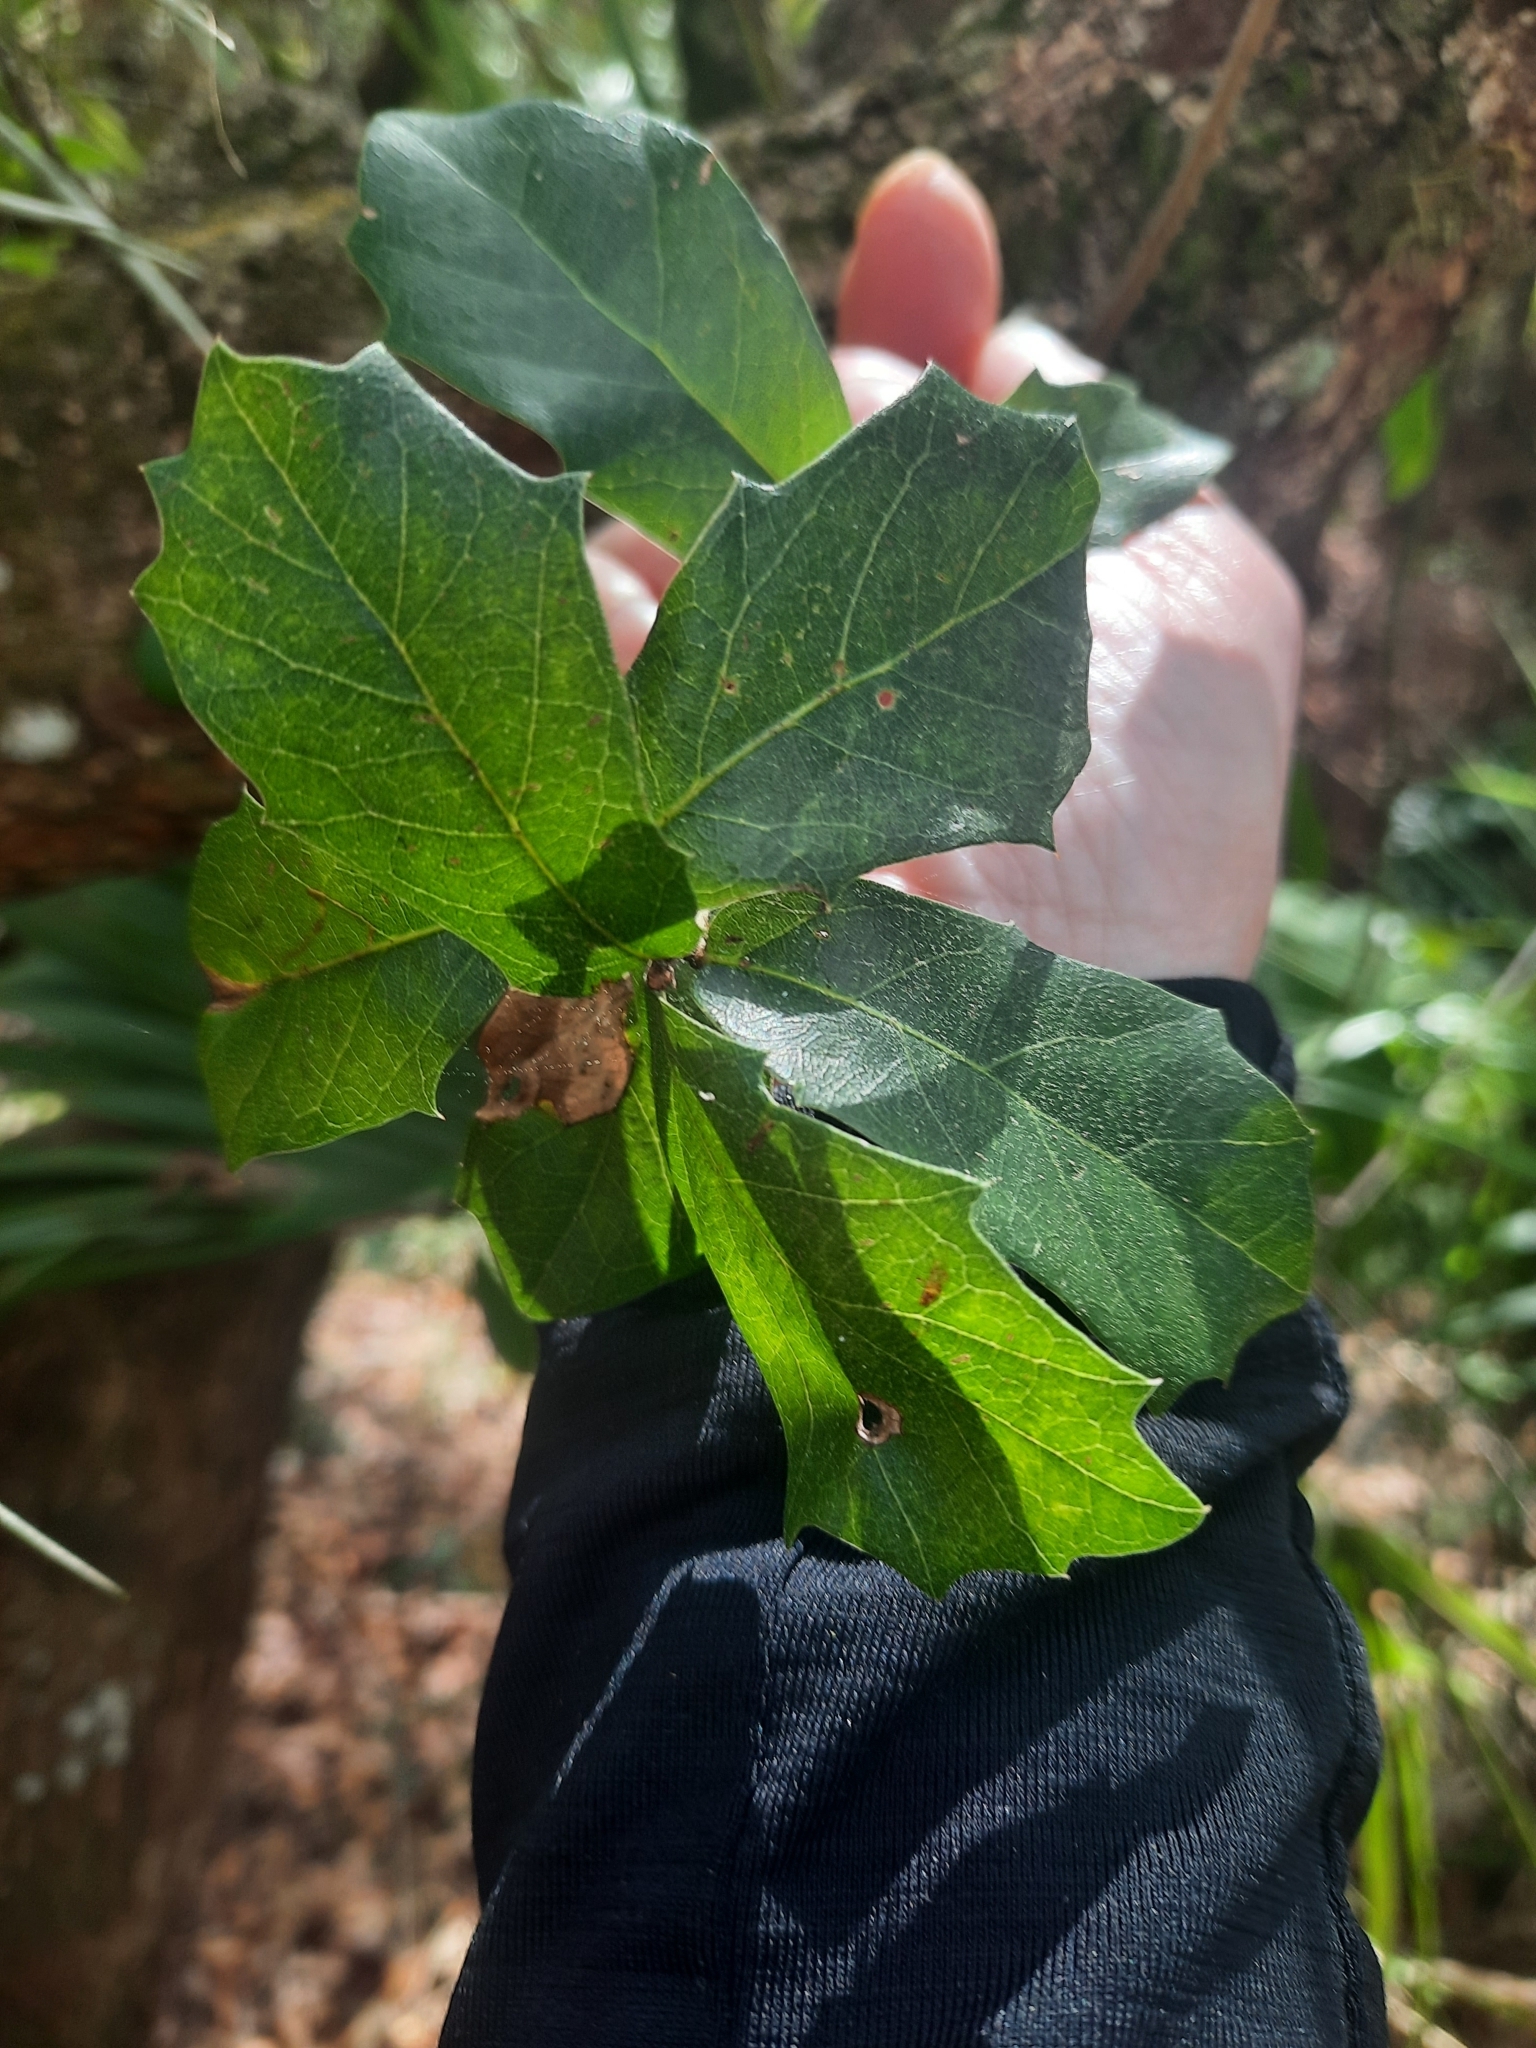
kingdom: Plantae
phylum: Tracheophyta
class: Magnoliopsida
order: Fagales
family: Fagaceae
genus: Quercus
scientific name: Quercus virginiana
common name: Southern live oak
